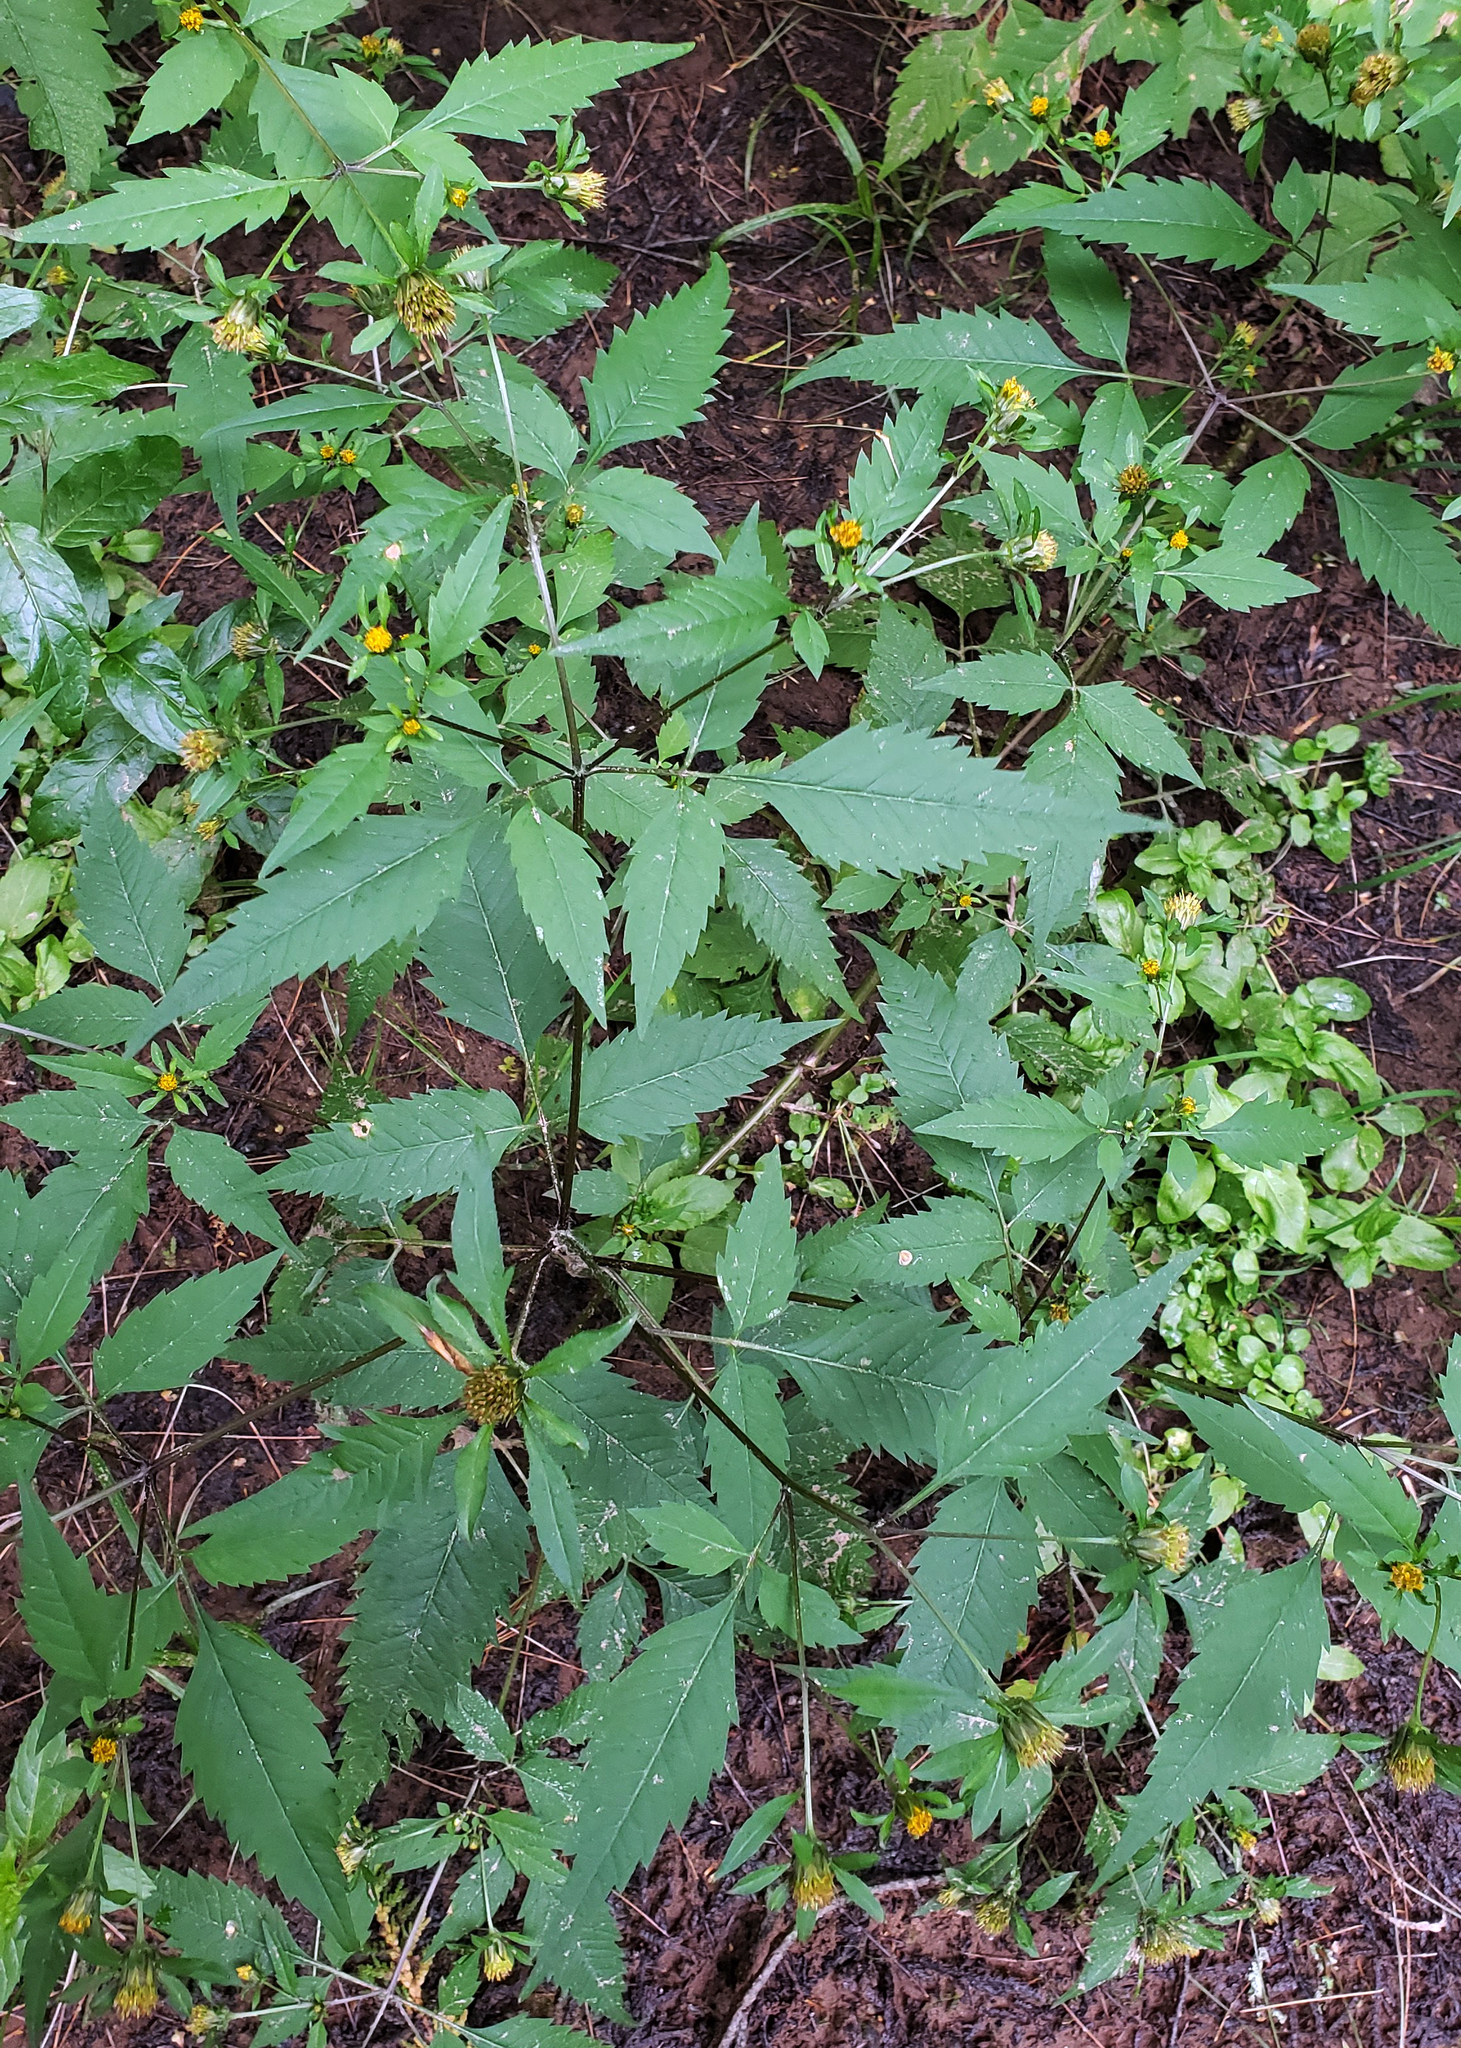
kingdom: Plantae
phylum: Tracheophyta
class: Magnoliopsida
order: Asterales
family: Asteraceae
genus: Bidens
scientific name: Bidens frondosa
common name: Beggarticks
